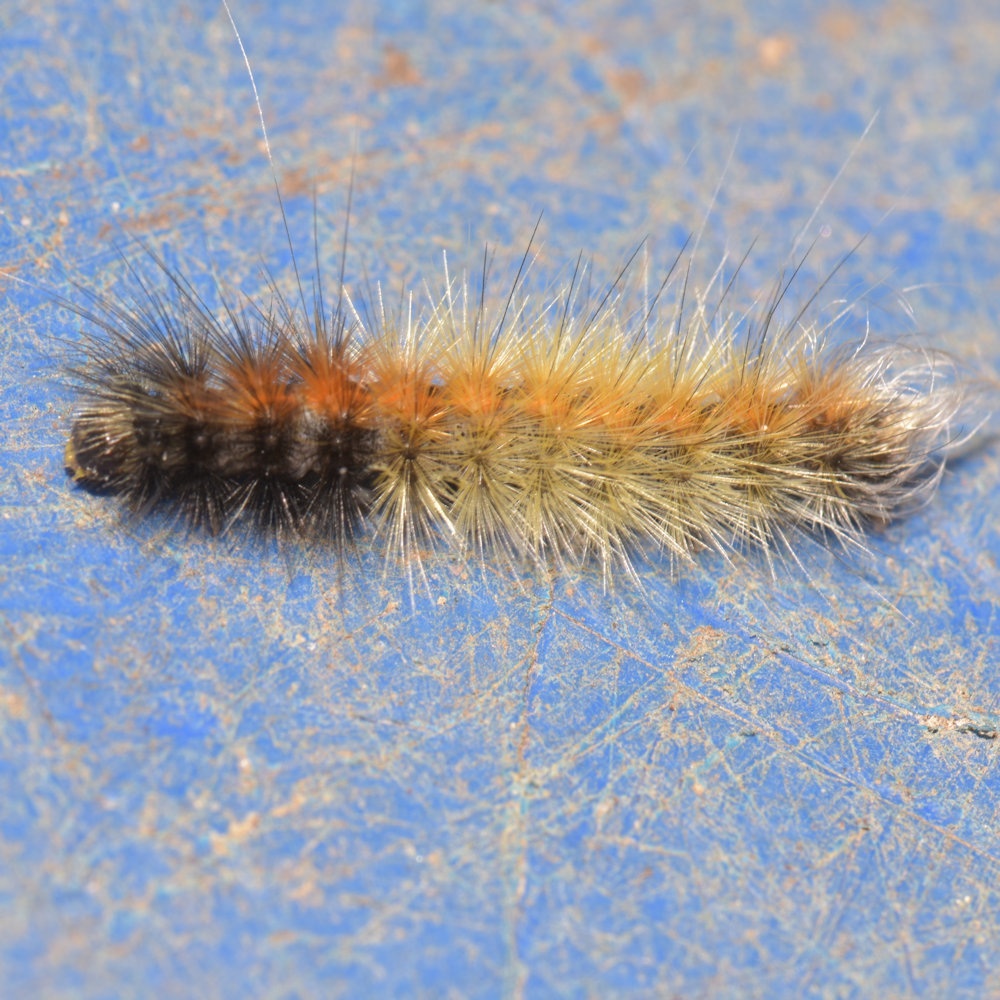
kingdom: Animalia
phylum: Arthropoda
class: Insecta
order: Lepidoptera
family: Erebidae
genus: Spilosoma
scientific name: Spilosoma virginica
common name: Virginia tiger moth
